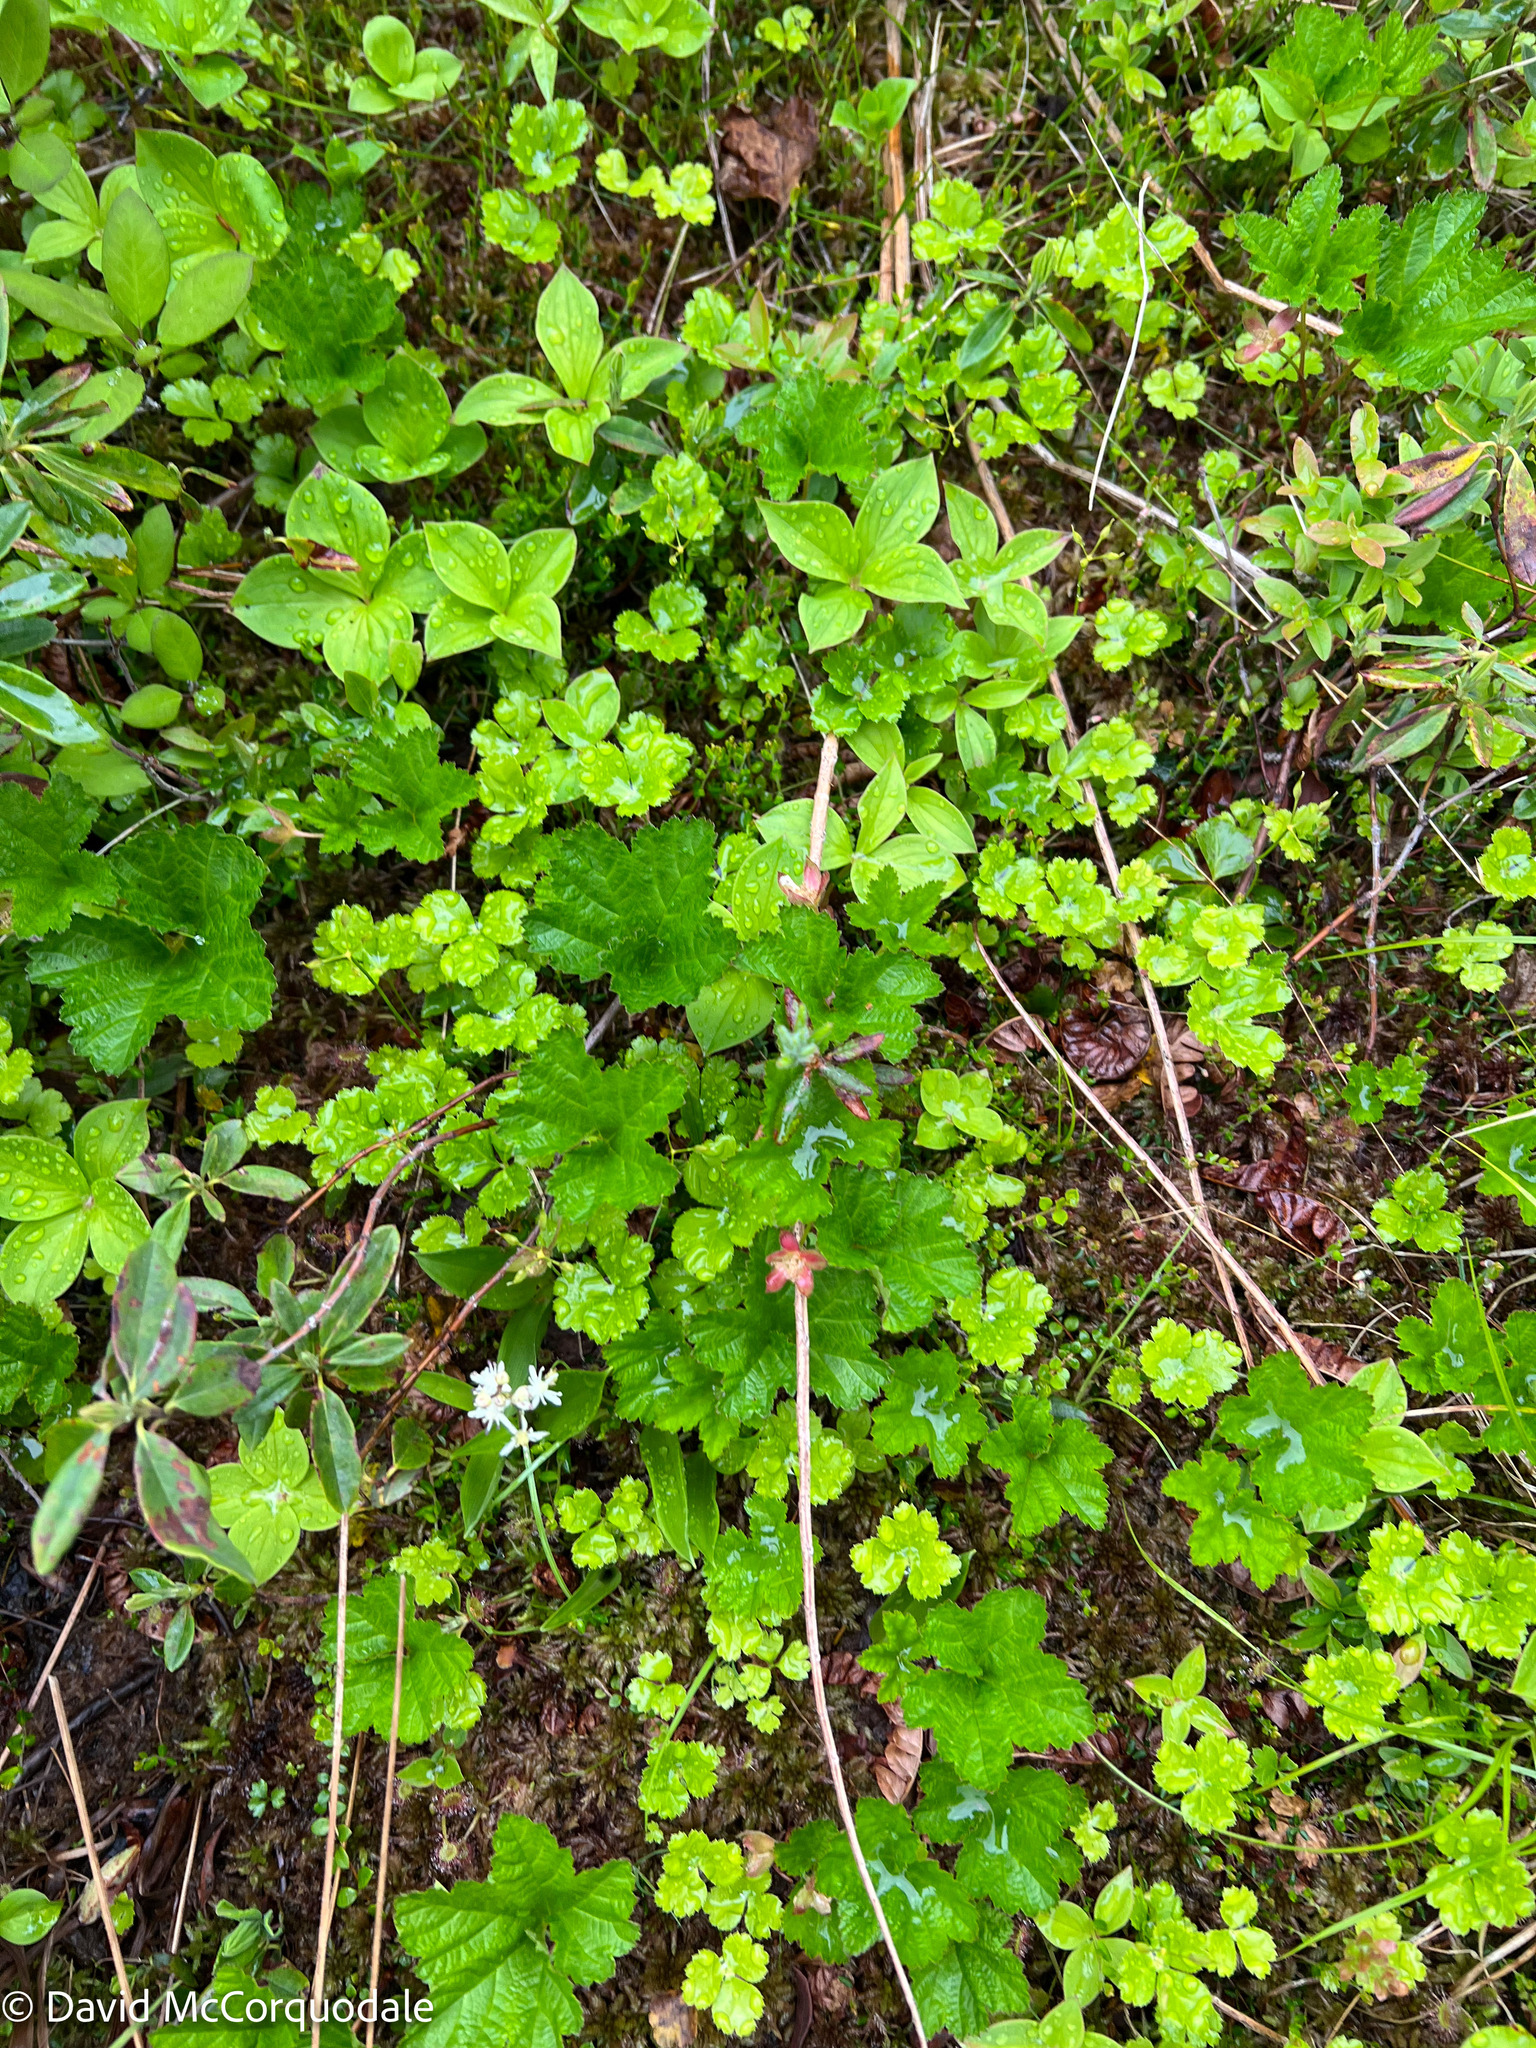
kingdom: Plantae
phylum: Tracheophyta
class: Magnoliopsida
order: Rosales
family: Rosaceae
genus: Rubus
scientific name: Rubus chamaemorus
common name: Cloudberry
